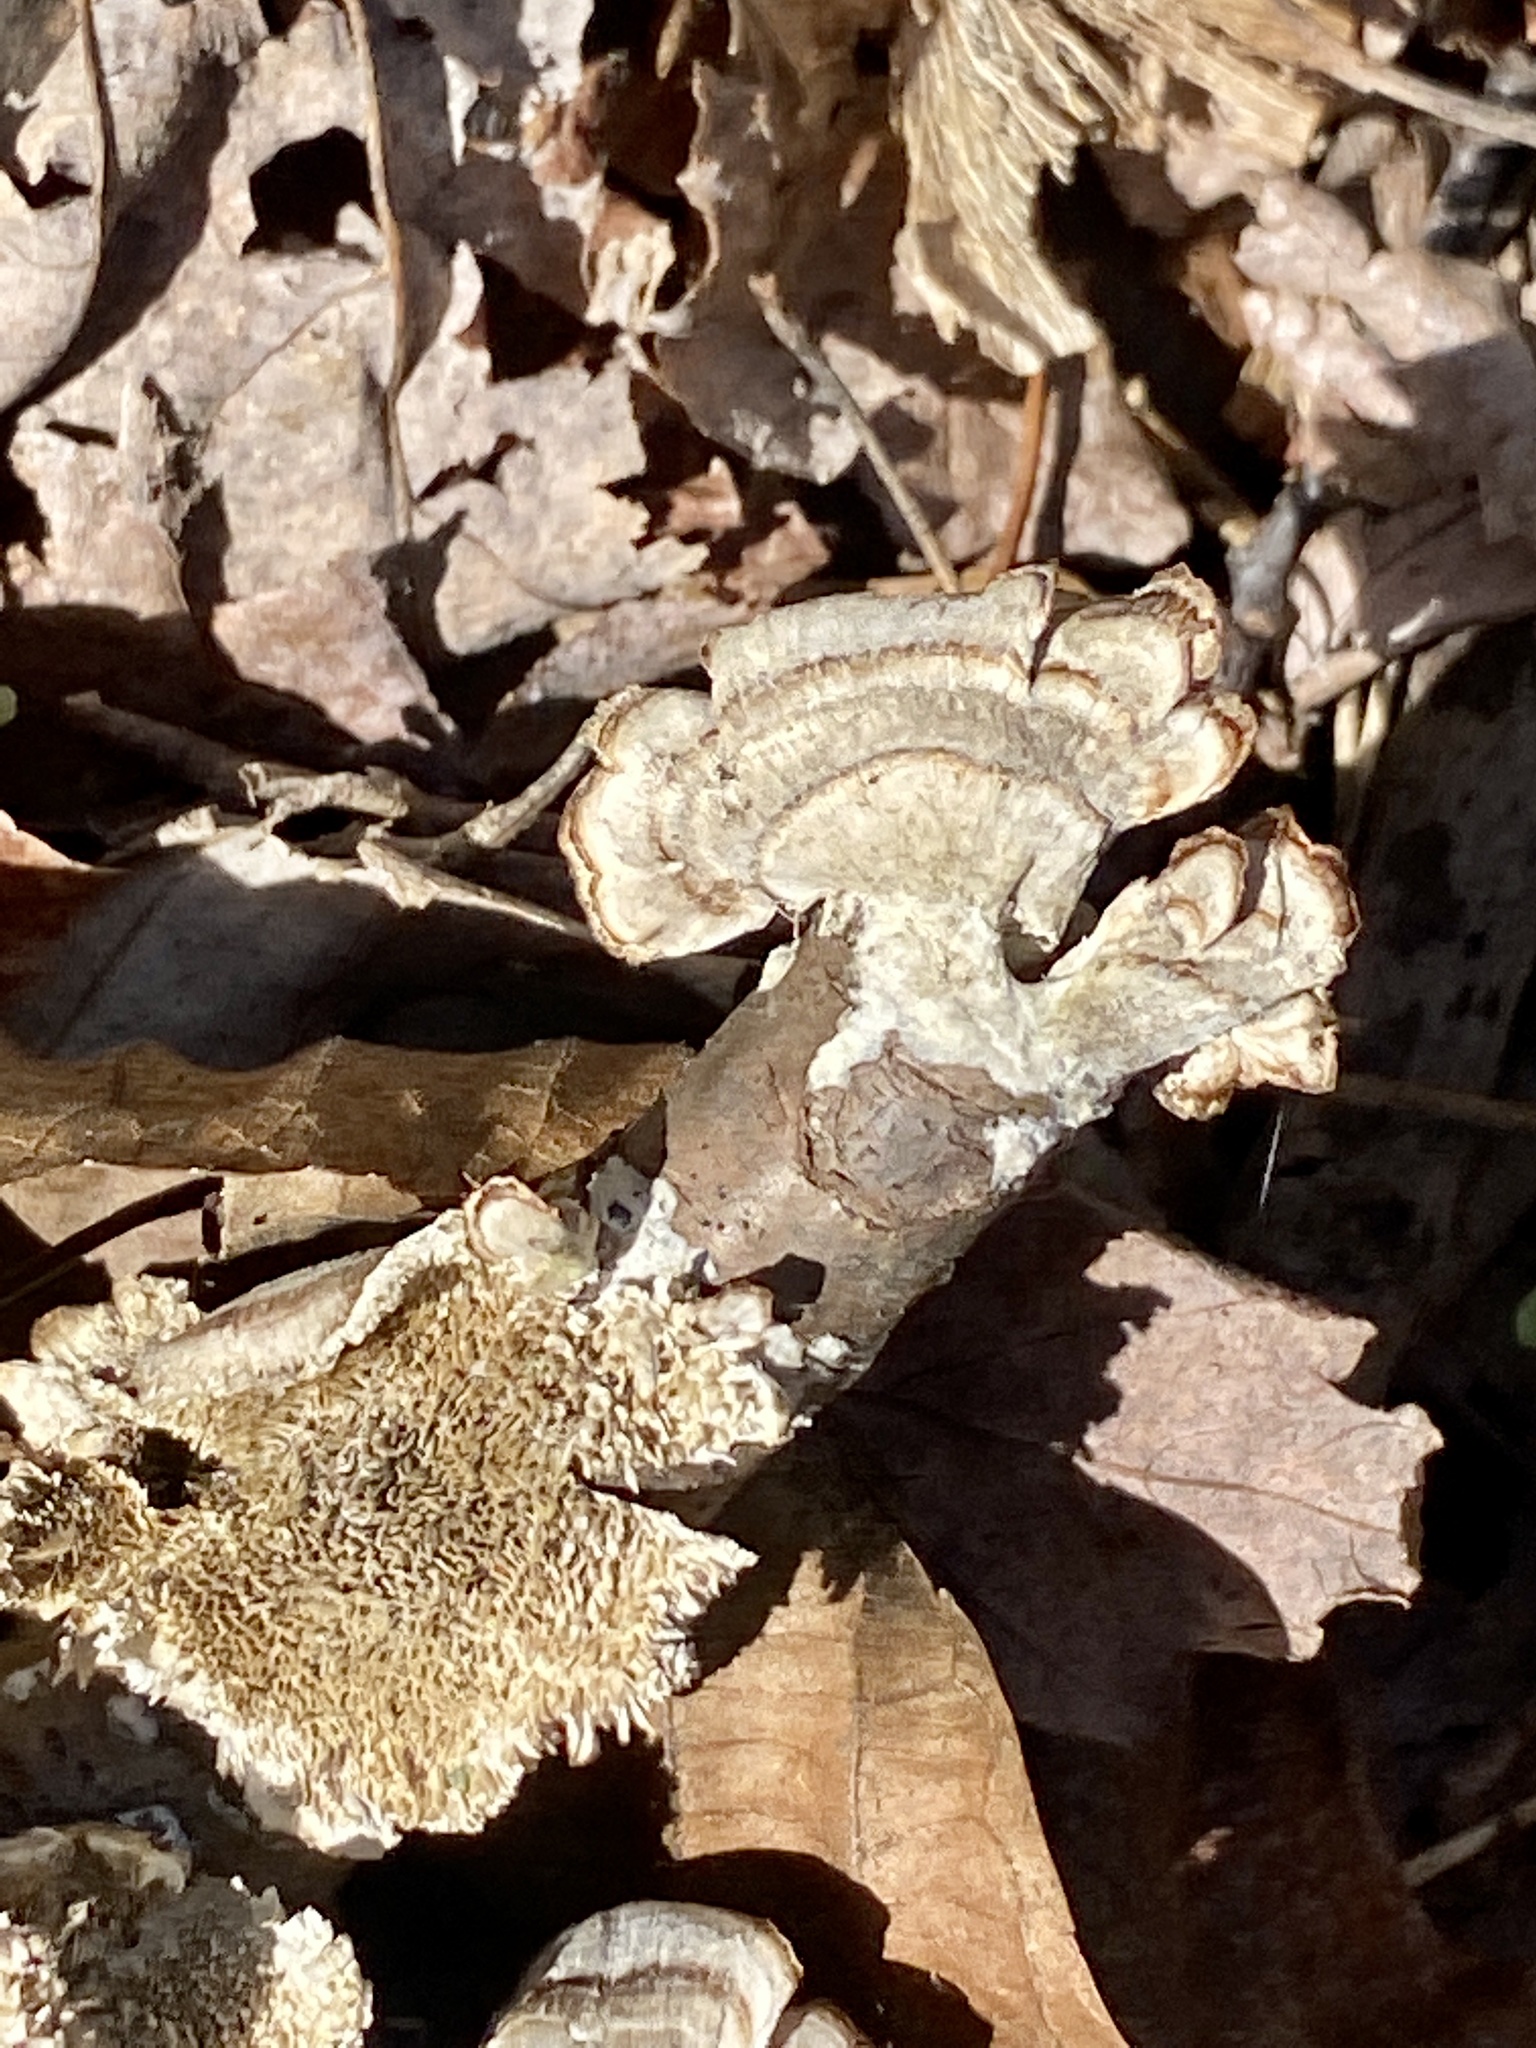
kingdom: Fungi
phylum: Basidiomycota
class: Agaricomycetes
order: Hymenochaetales
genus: Trichaptum
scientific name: Trichaptum biforme
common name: Violet-toothed polypore
